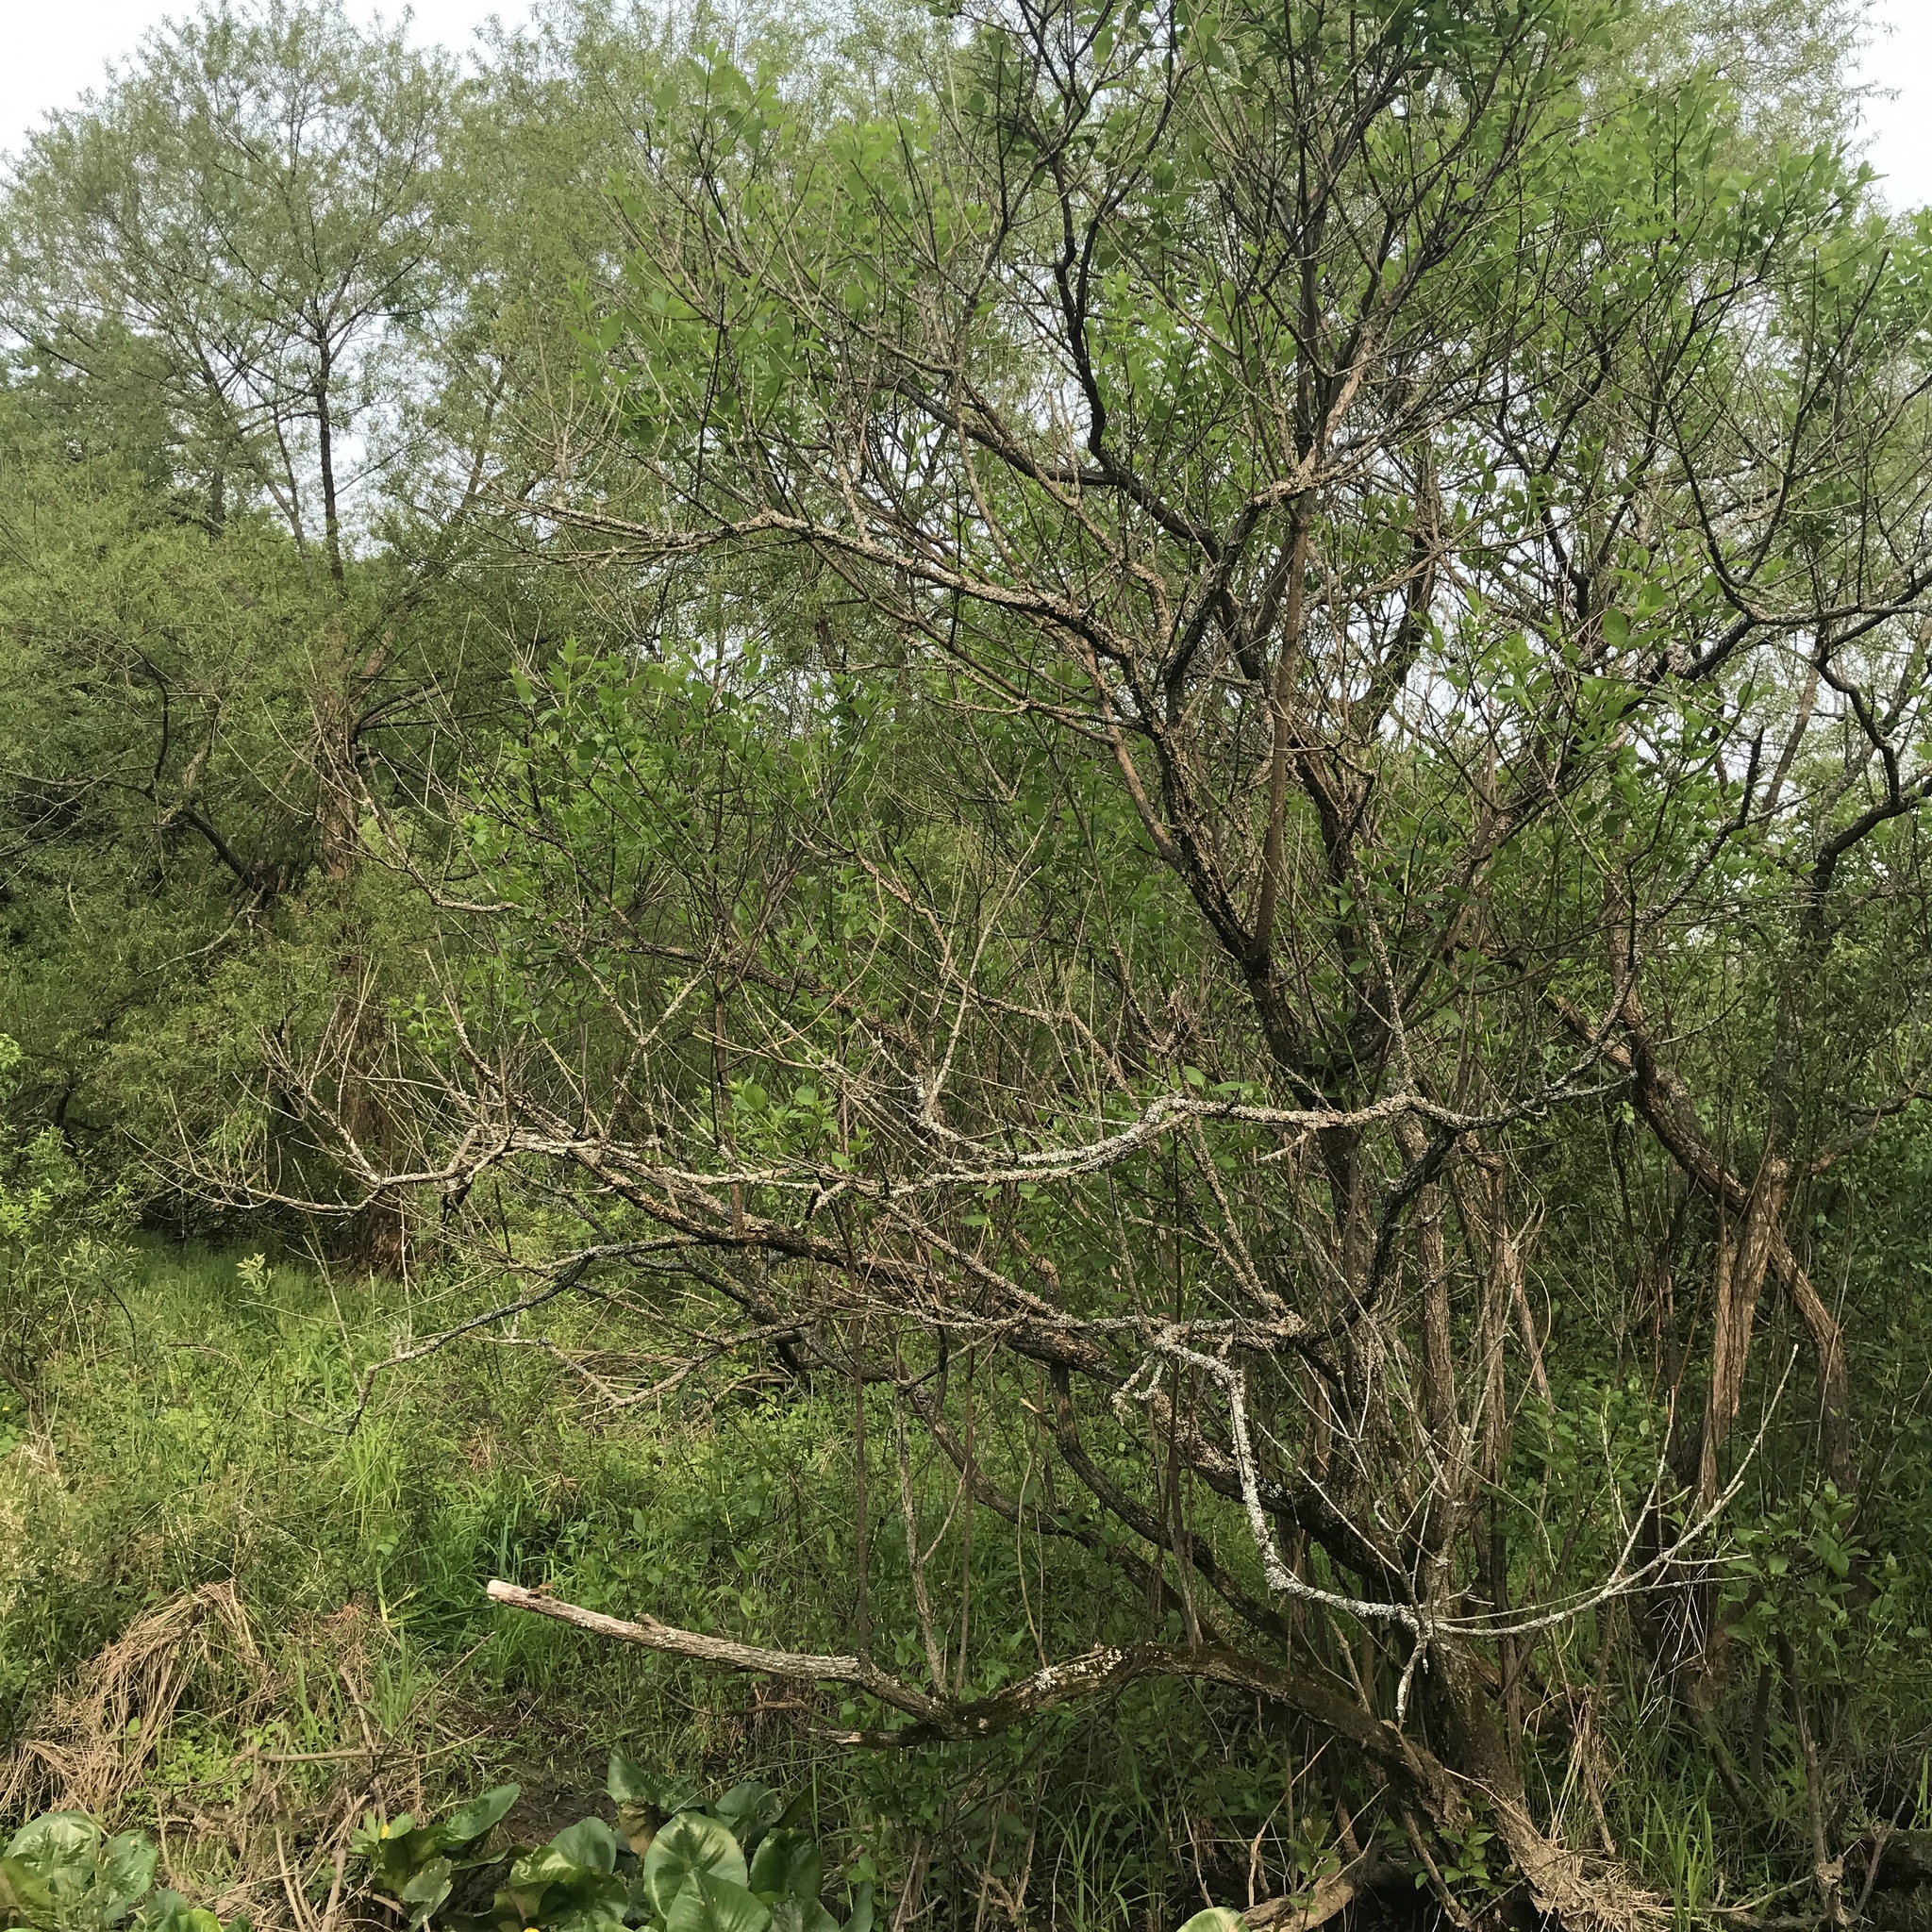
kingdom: Plantae
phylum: Tracheophyta
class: Magnoliopsida
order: Gentianales
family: Rubiaceae
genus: Cephalanthus
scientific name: Cephalanthus occidentalis
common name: Button-willow
